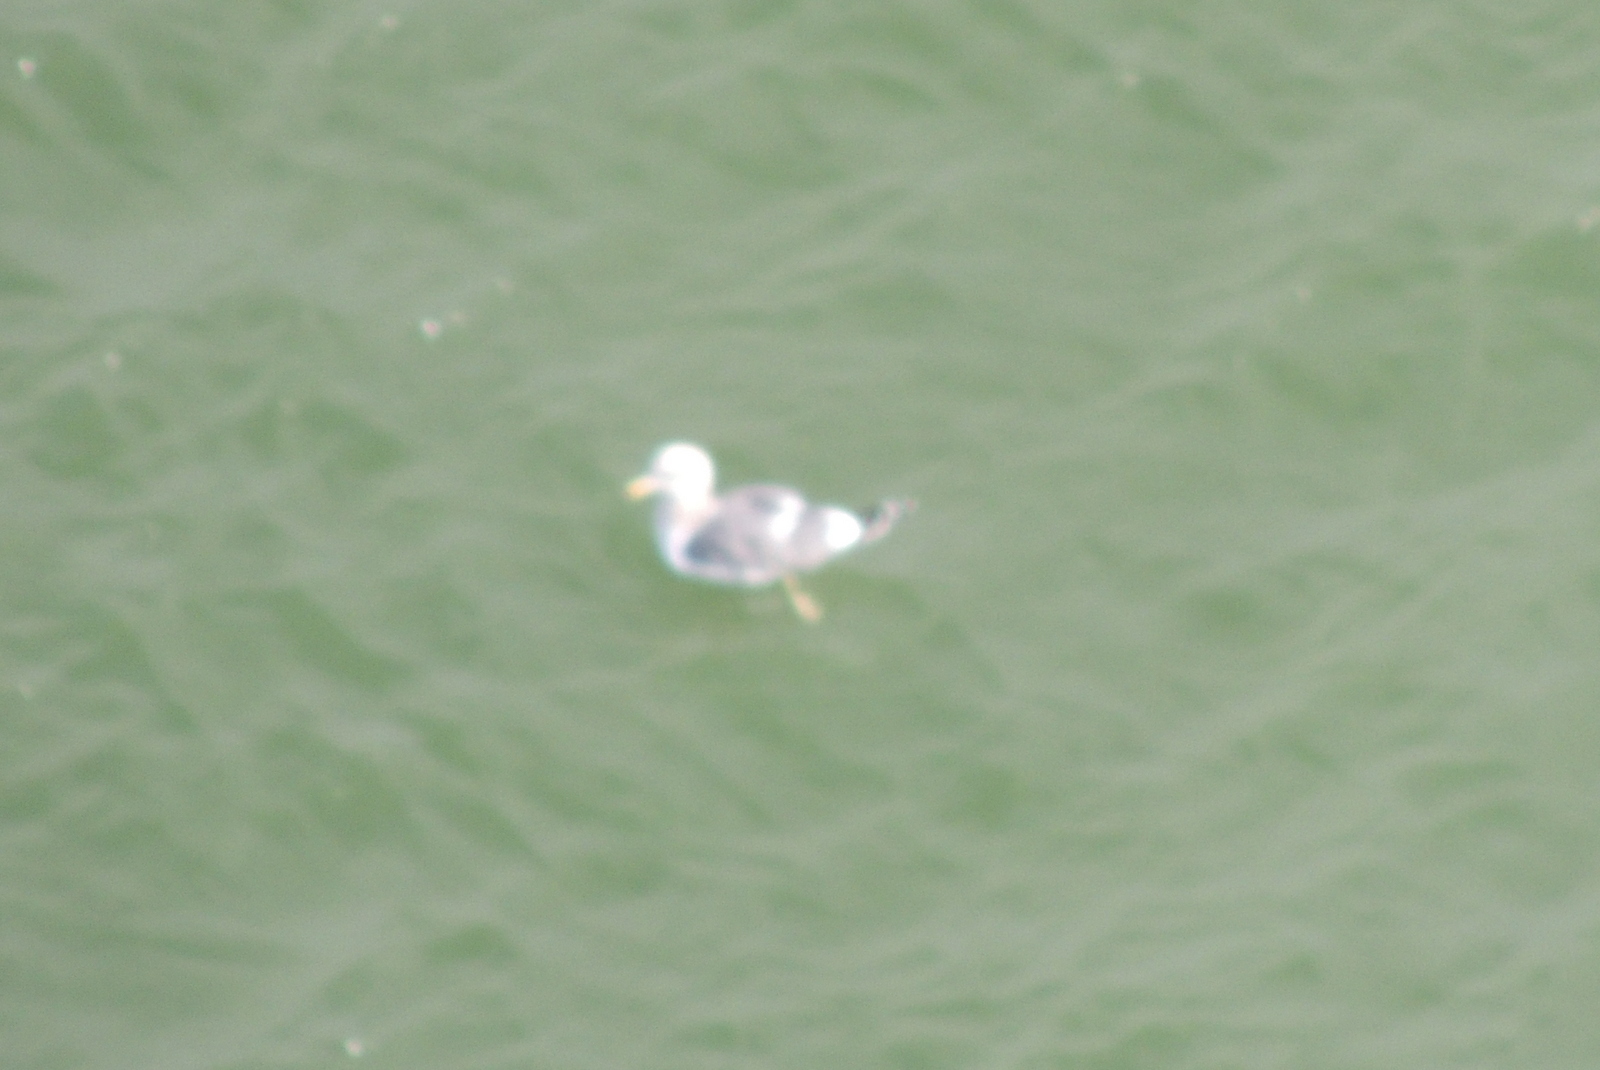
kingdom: Animalia
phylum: Chordata
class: Aves
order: Charadriiformes
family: Laridae
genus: Larus
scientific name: Larus occidentalis
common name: Western gull
